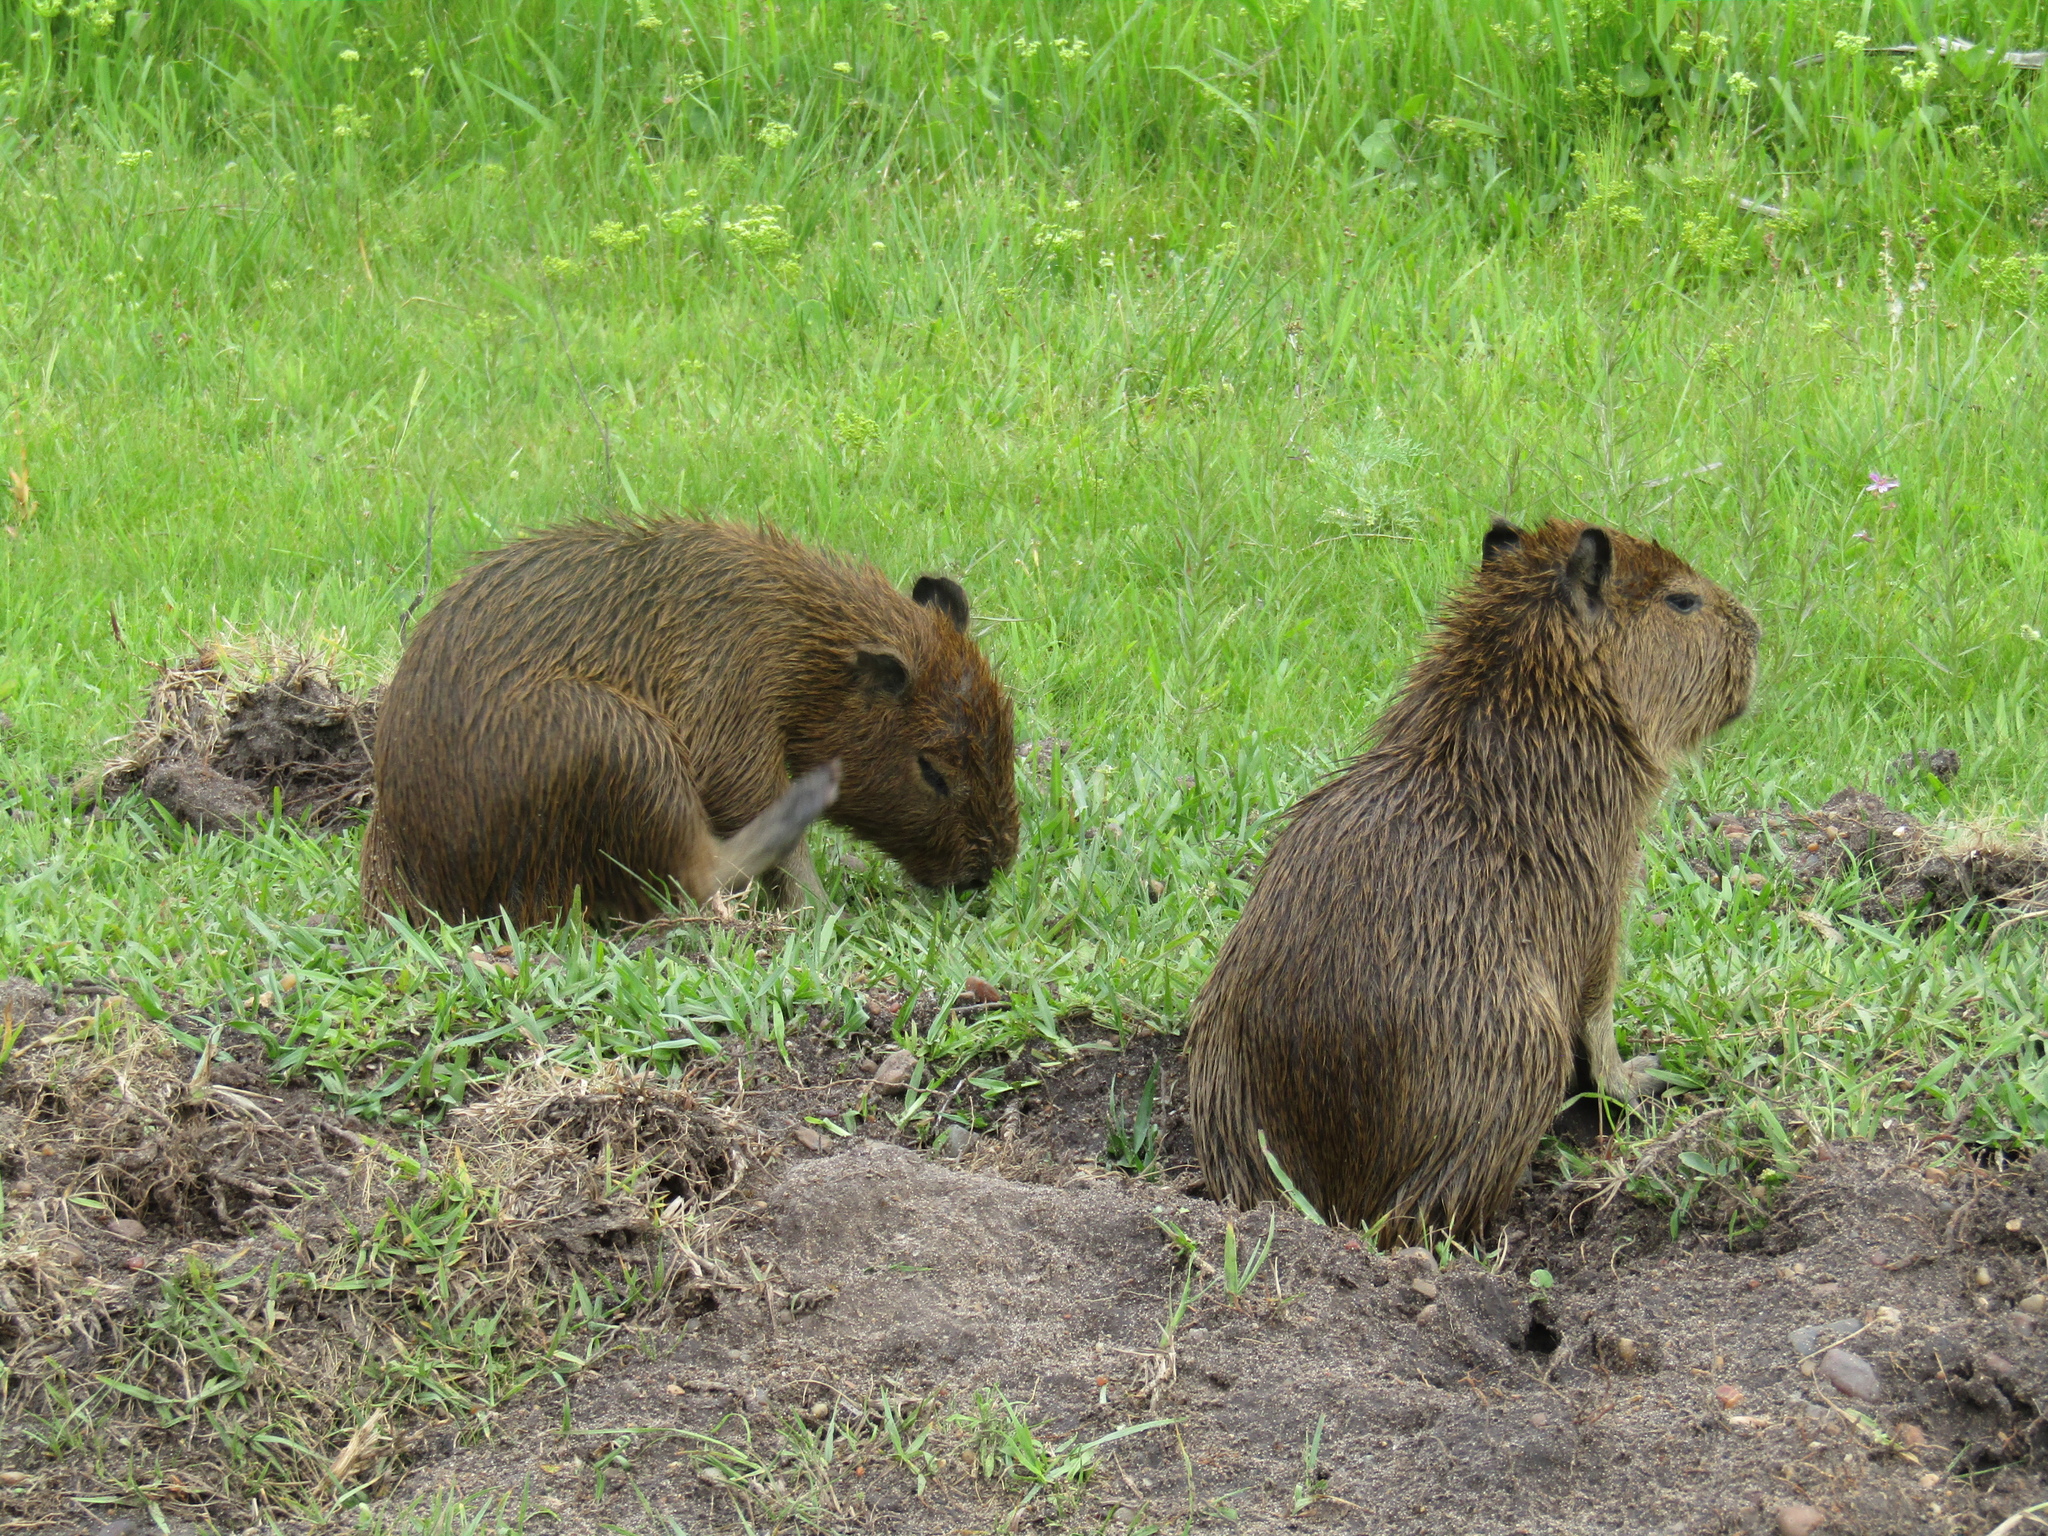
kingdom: Animalia
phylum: Chordata
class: Mammalia
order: Rodentia
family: Caviidae
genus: Hydrochoerus
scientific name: Hydrochoerus hydrochaeris
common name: Capybara
